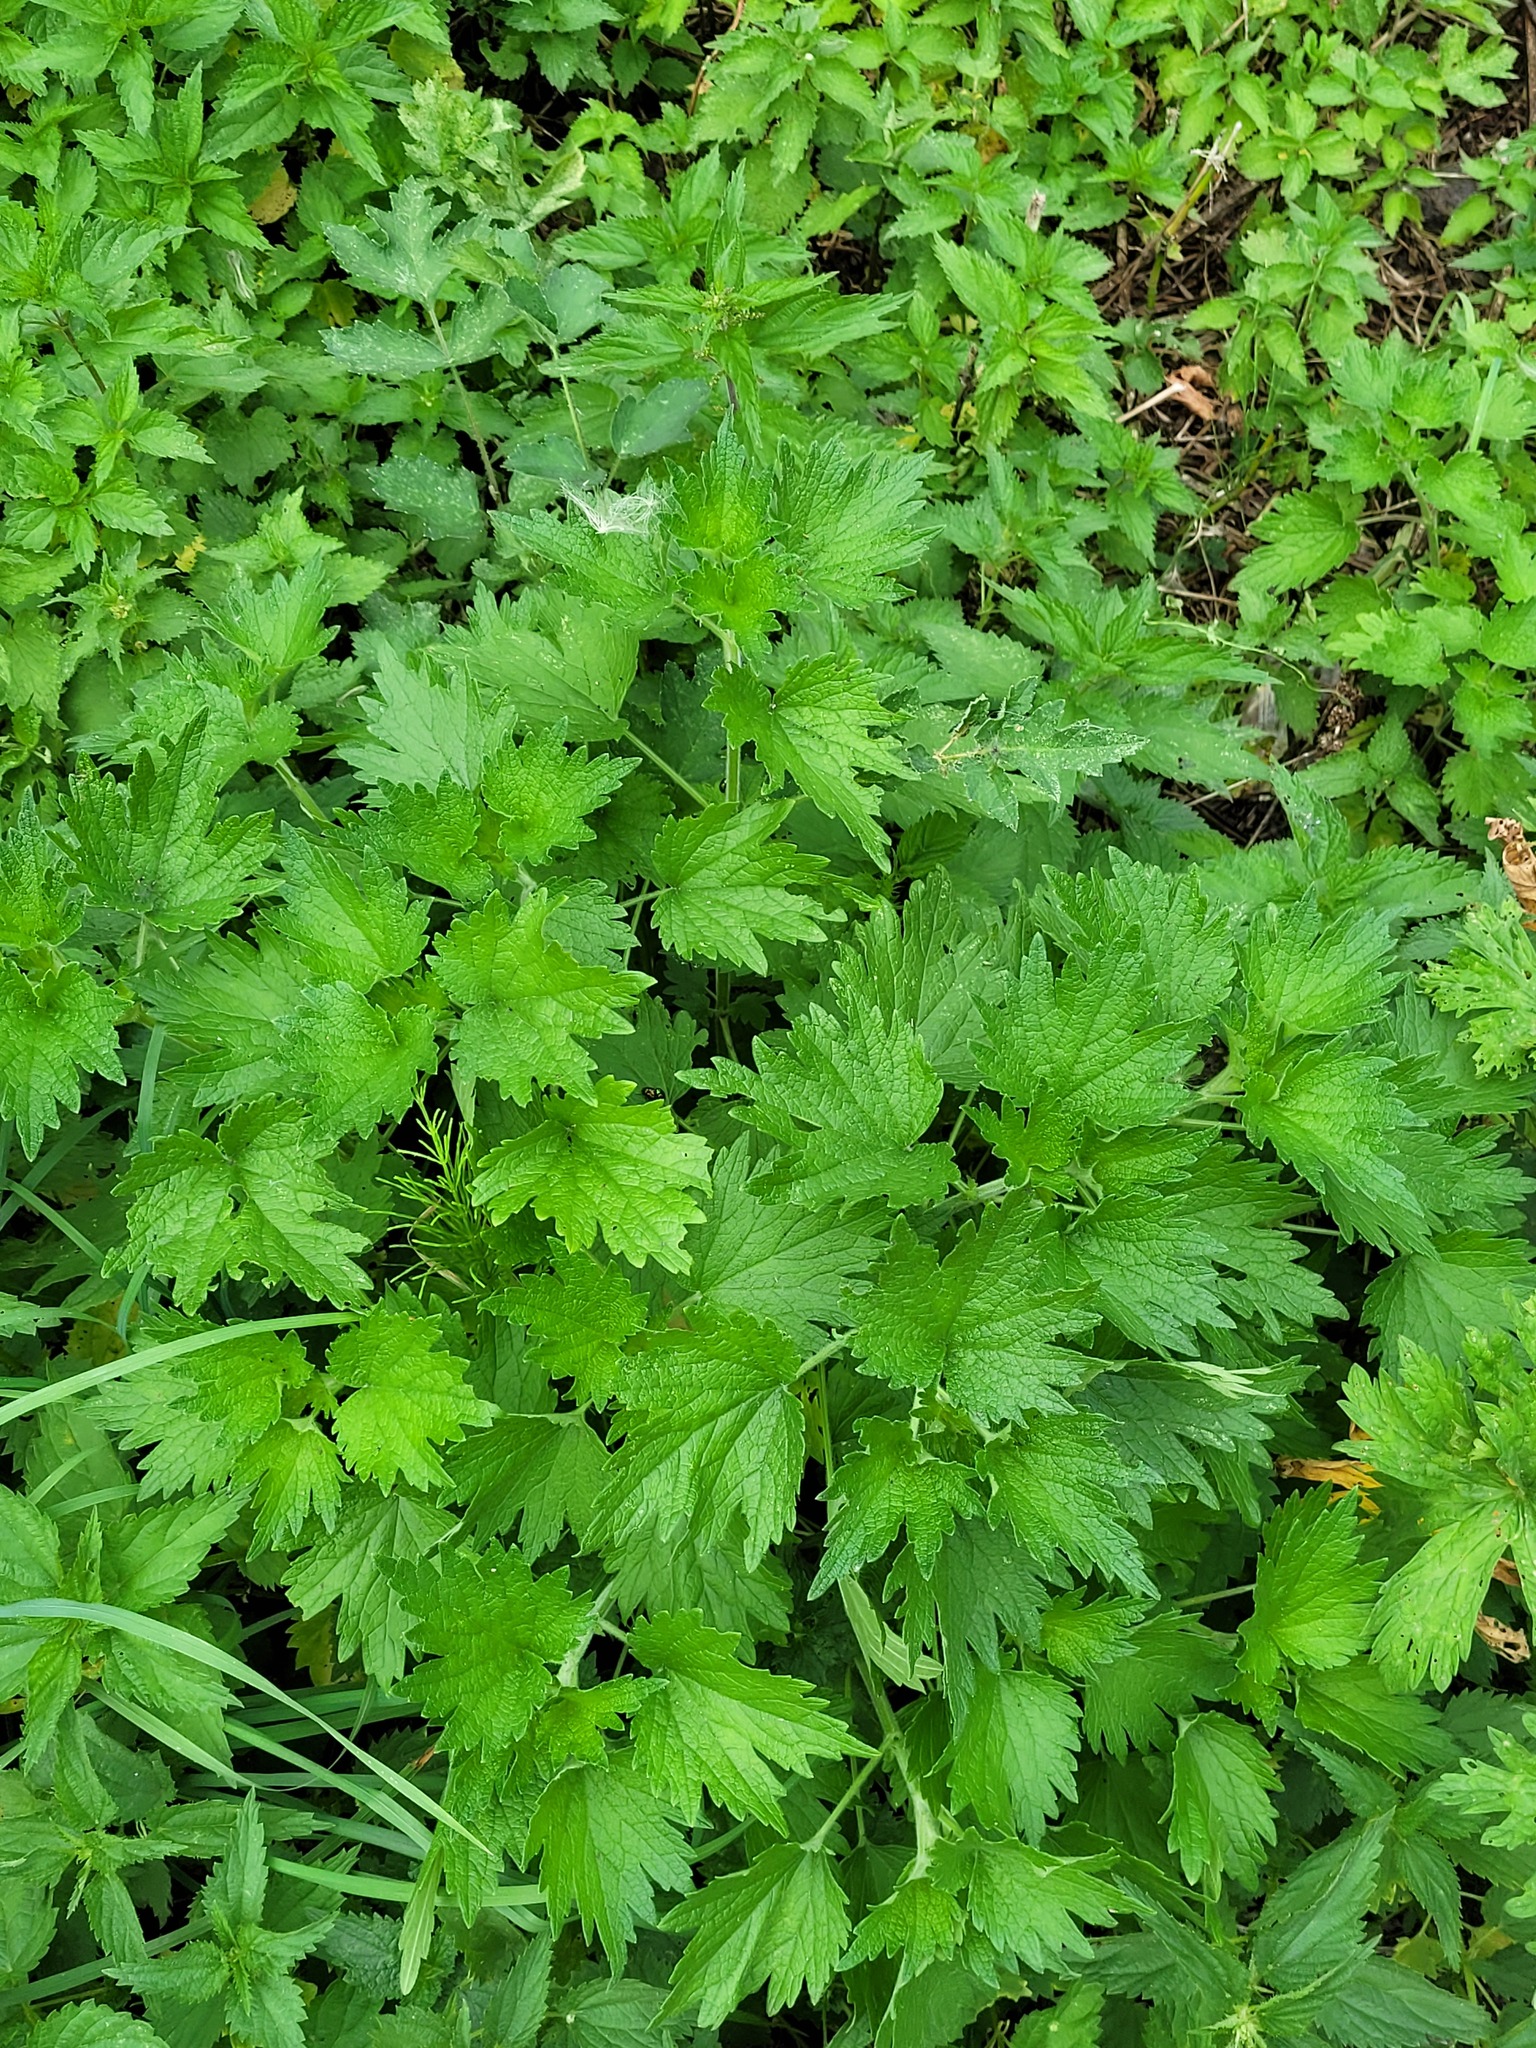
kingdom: Plantae
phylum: Tracheophyta
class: Magnoliopsida
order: Lamiales
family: Lamiaceae
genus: Leonurus
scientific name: Leonurus quinquelobatus
